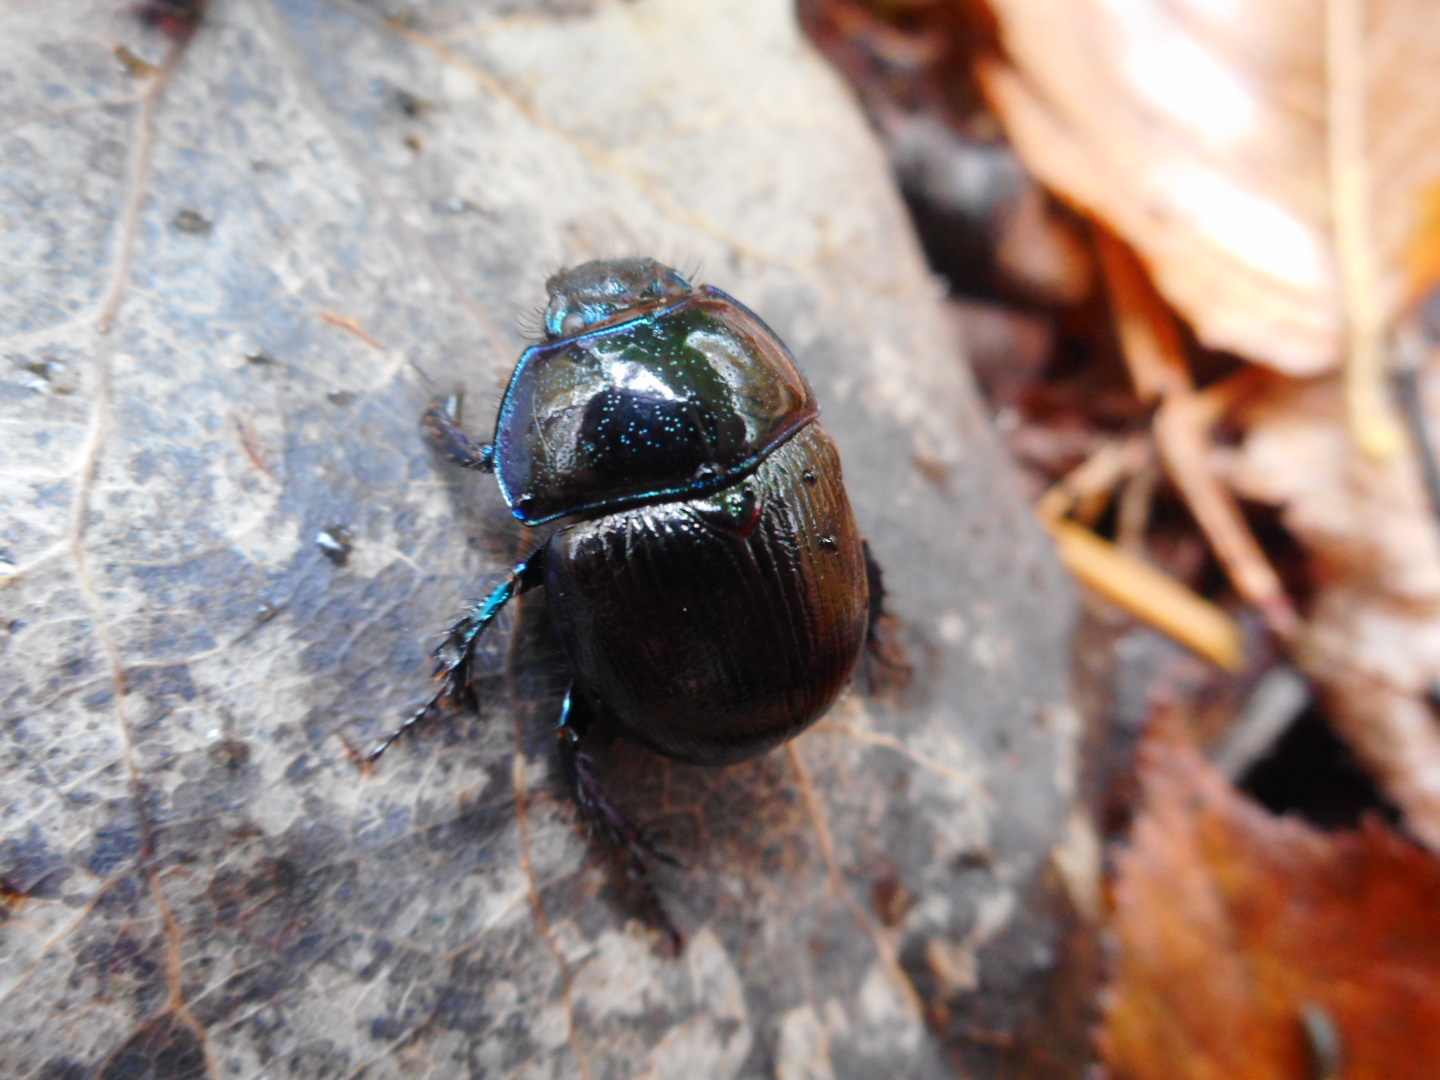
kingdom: Animalia
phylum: Arthropoda
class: Insecta
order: Coleoptera
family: Geotrupidae
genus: Anoplotrupes
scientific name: Anoplotrupes stercorosus
